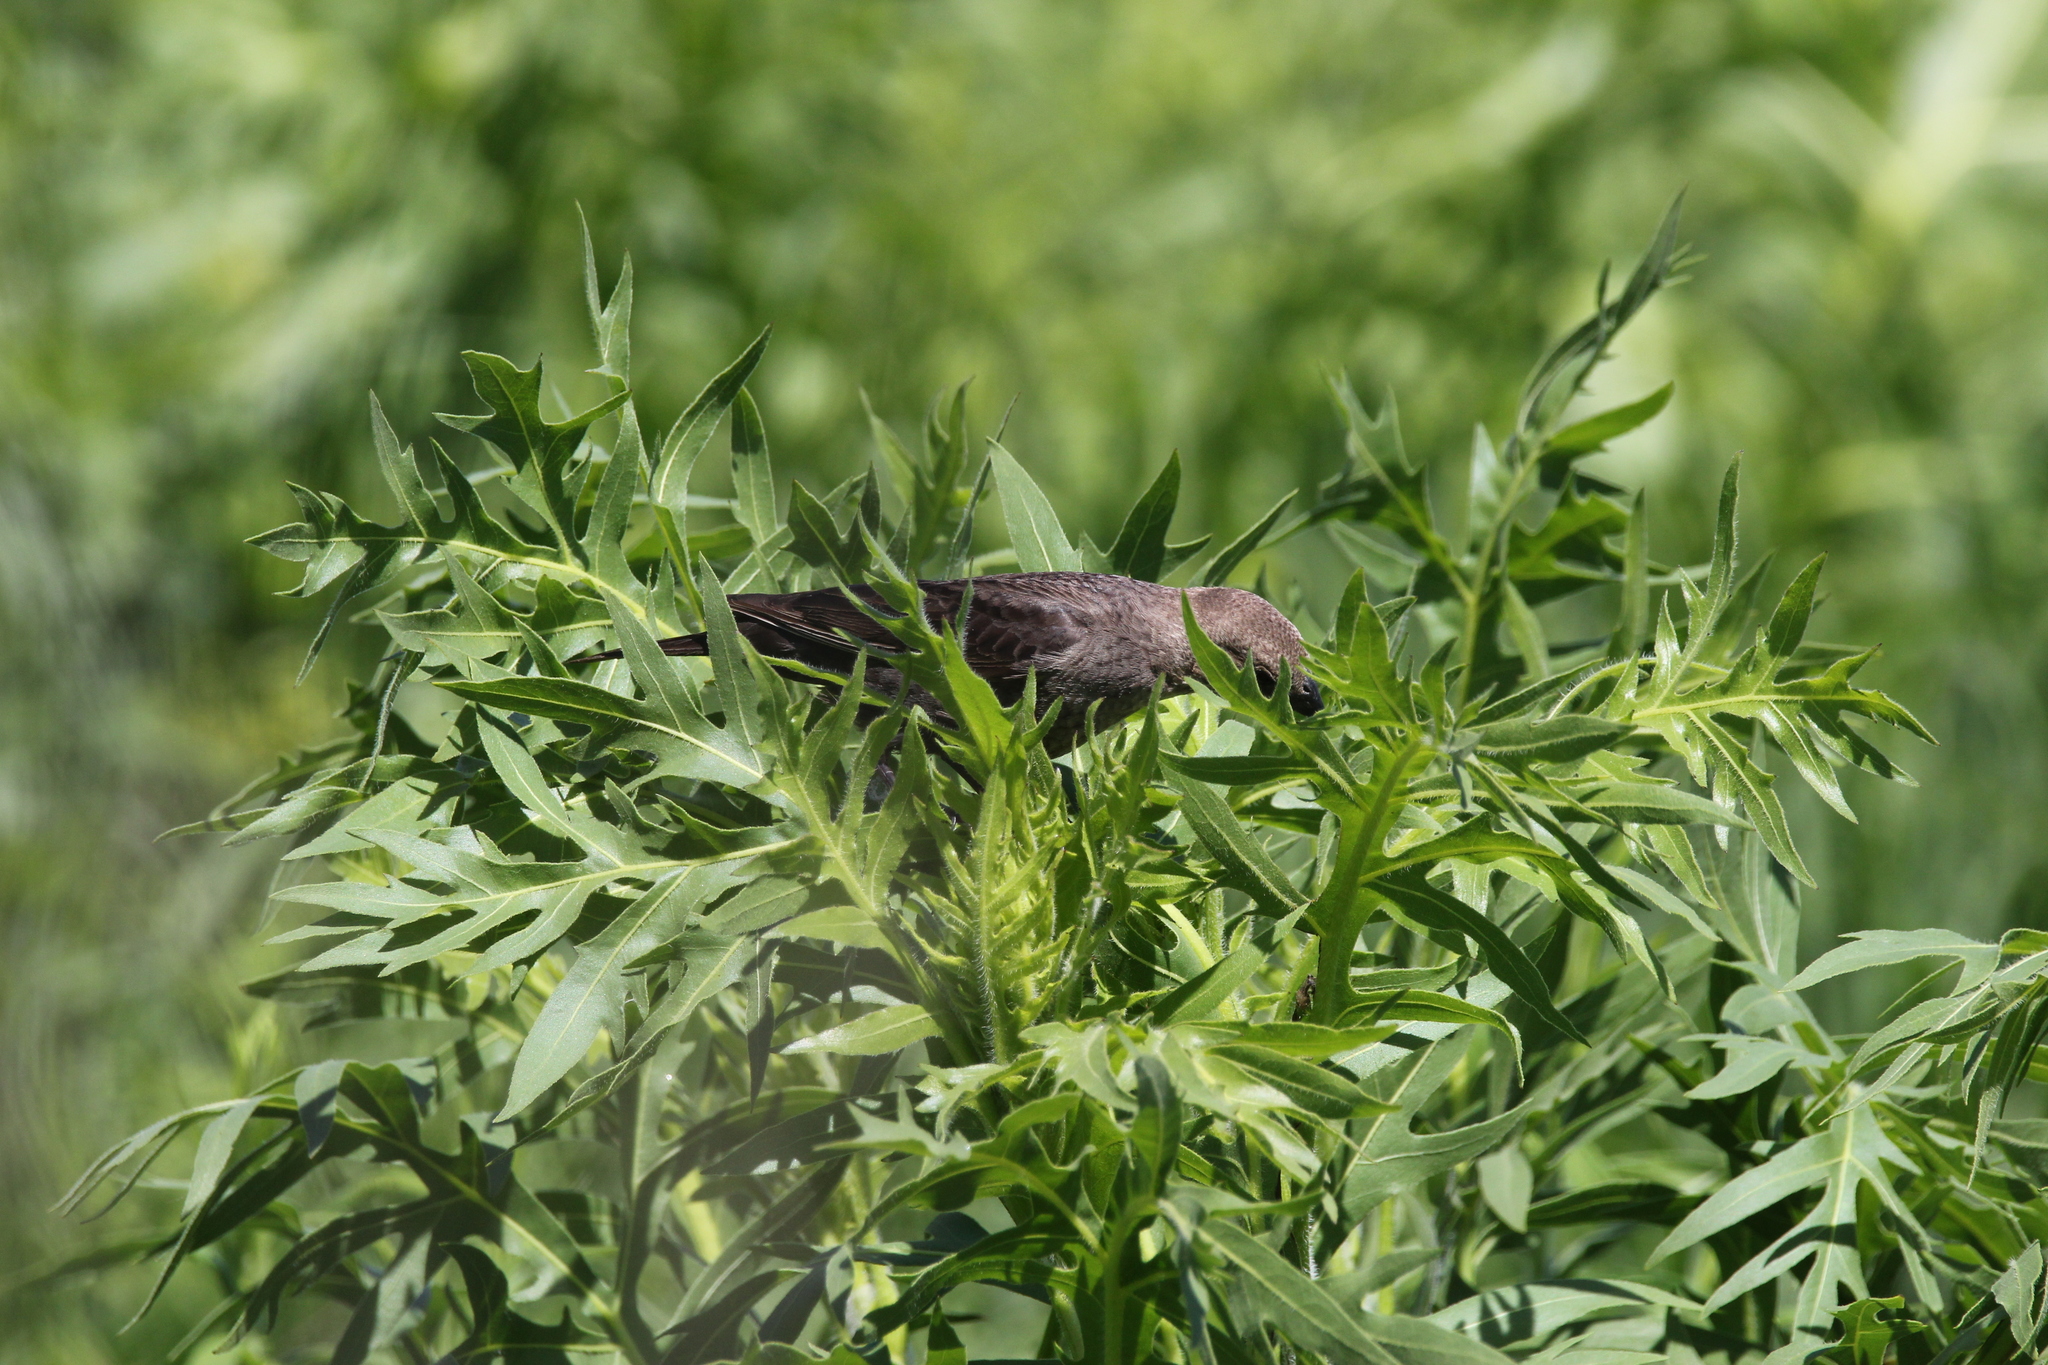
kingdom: Animalia
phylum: Chordata
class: Aves
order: Passeriformes
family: Icteridae
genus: Molothrus
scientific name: Molothrus ater
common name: Brown-headed cowbird
